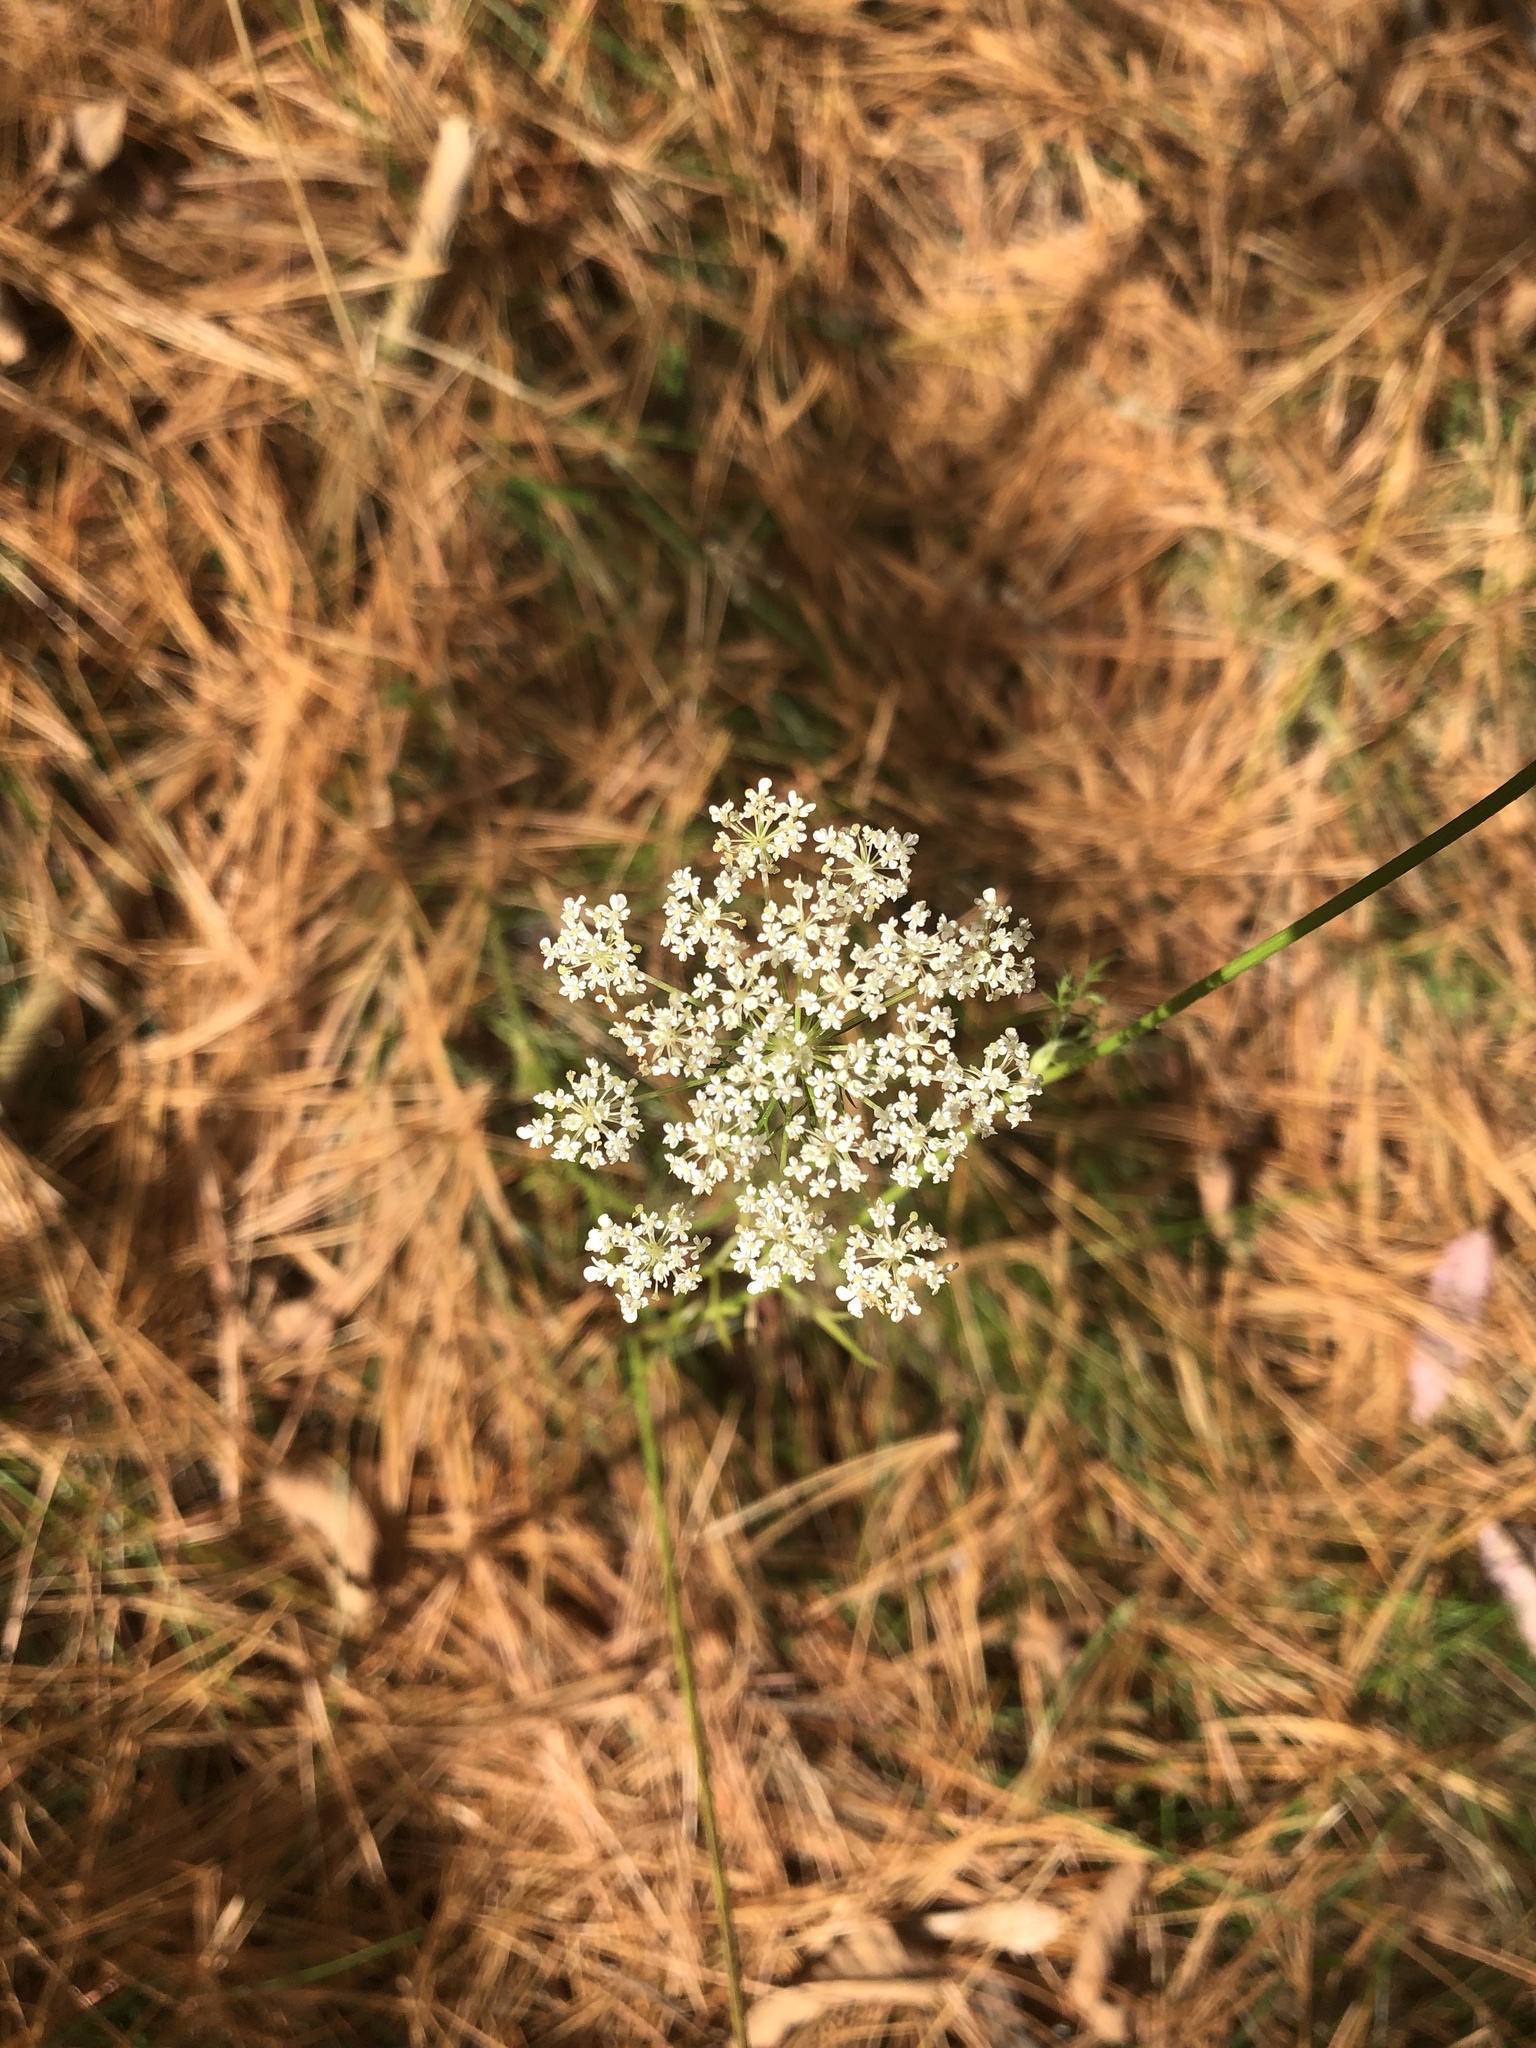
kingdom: Plantae
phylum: Tracheophyta
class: Magnoliopsida
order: Apiales
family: Apiaceae
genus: Daucus
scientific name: Daucus carota
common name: Wild carrot
